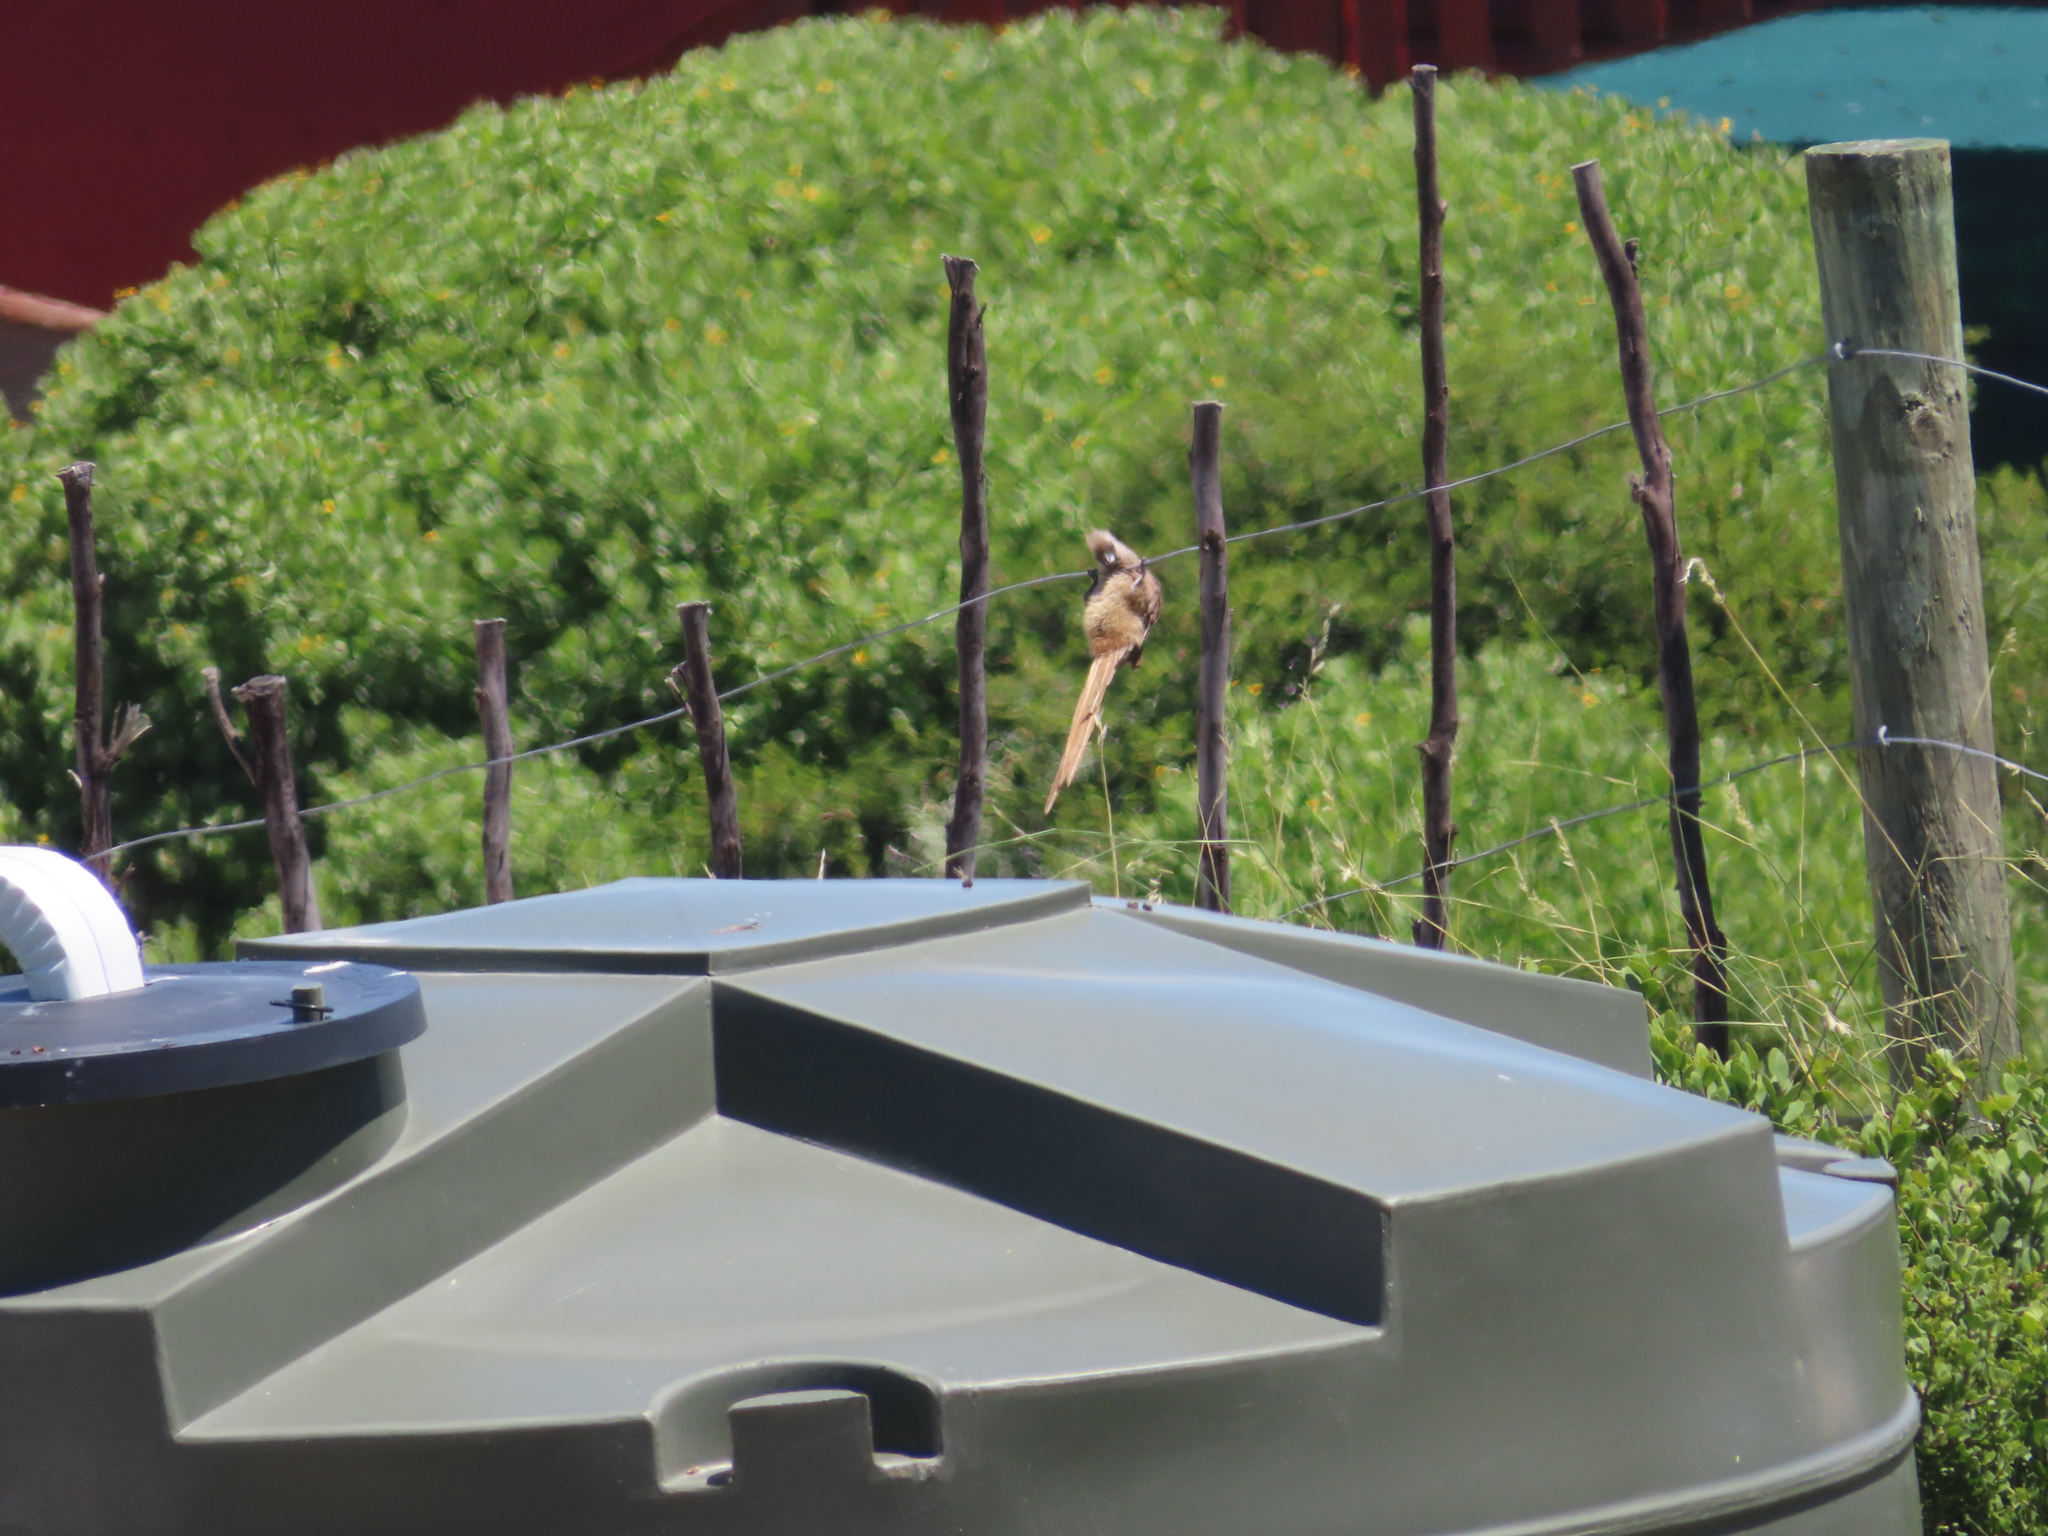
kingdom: Animalia
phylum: Chordata
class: Aves
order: Coliiformes
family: Coliidae
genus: Colius
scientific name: Colius striatus
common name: Speckled mousebird
